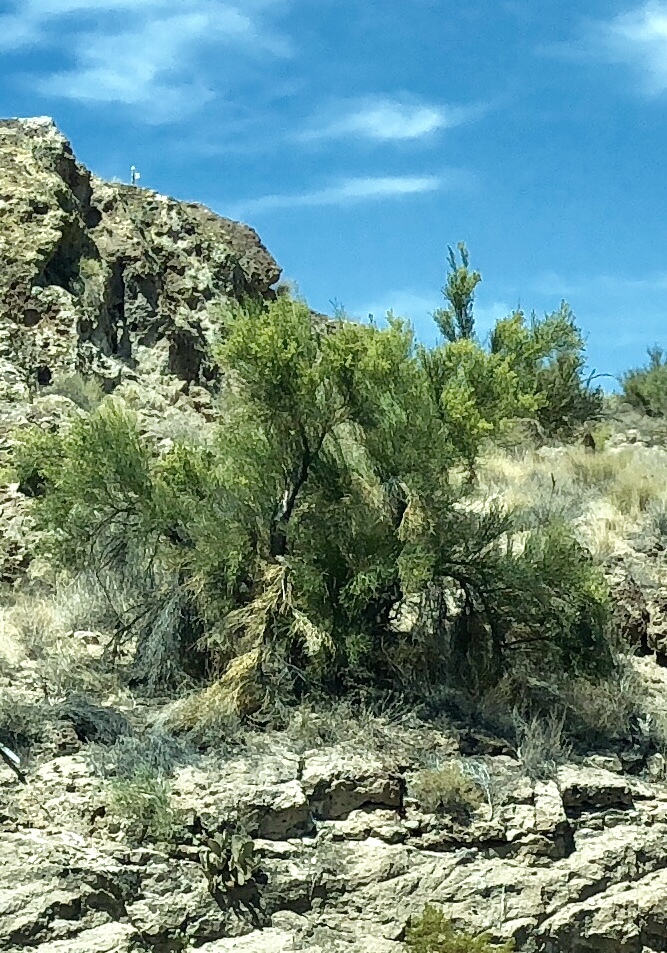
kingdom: Plantae
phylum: Tracheophyta
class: Magnoliopsida
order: Celastrales
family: Celastraceae
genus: Canotia
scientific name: Canotia holacantha
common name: Crucifixion thorns
